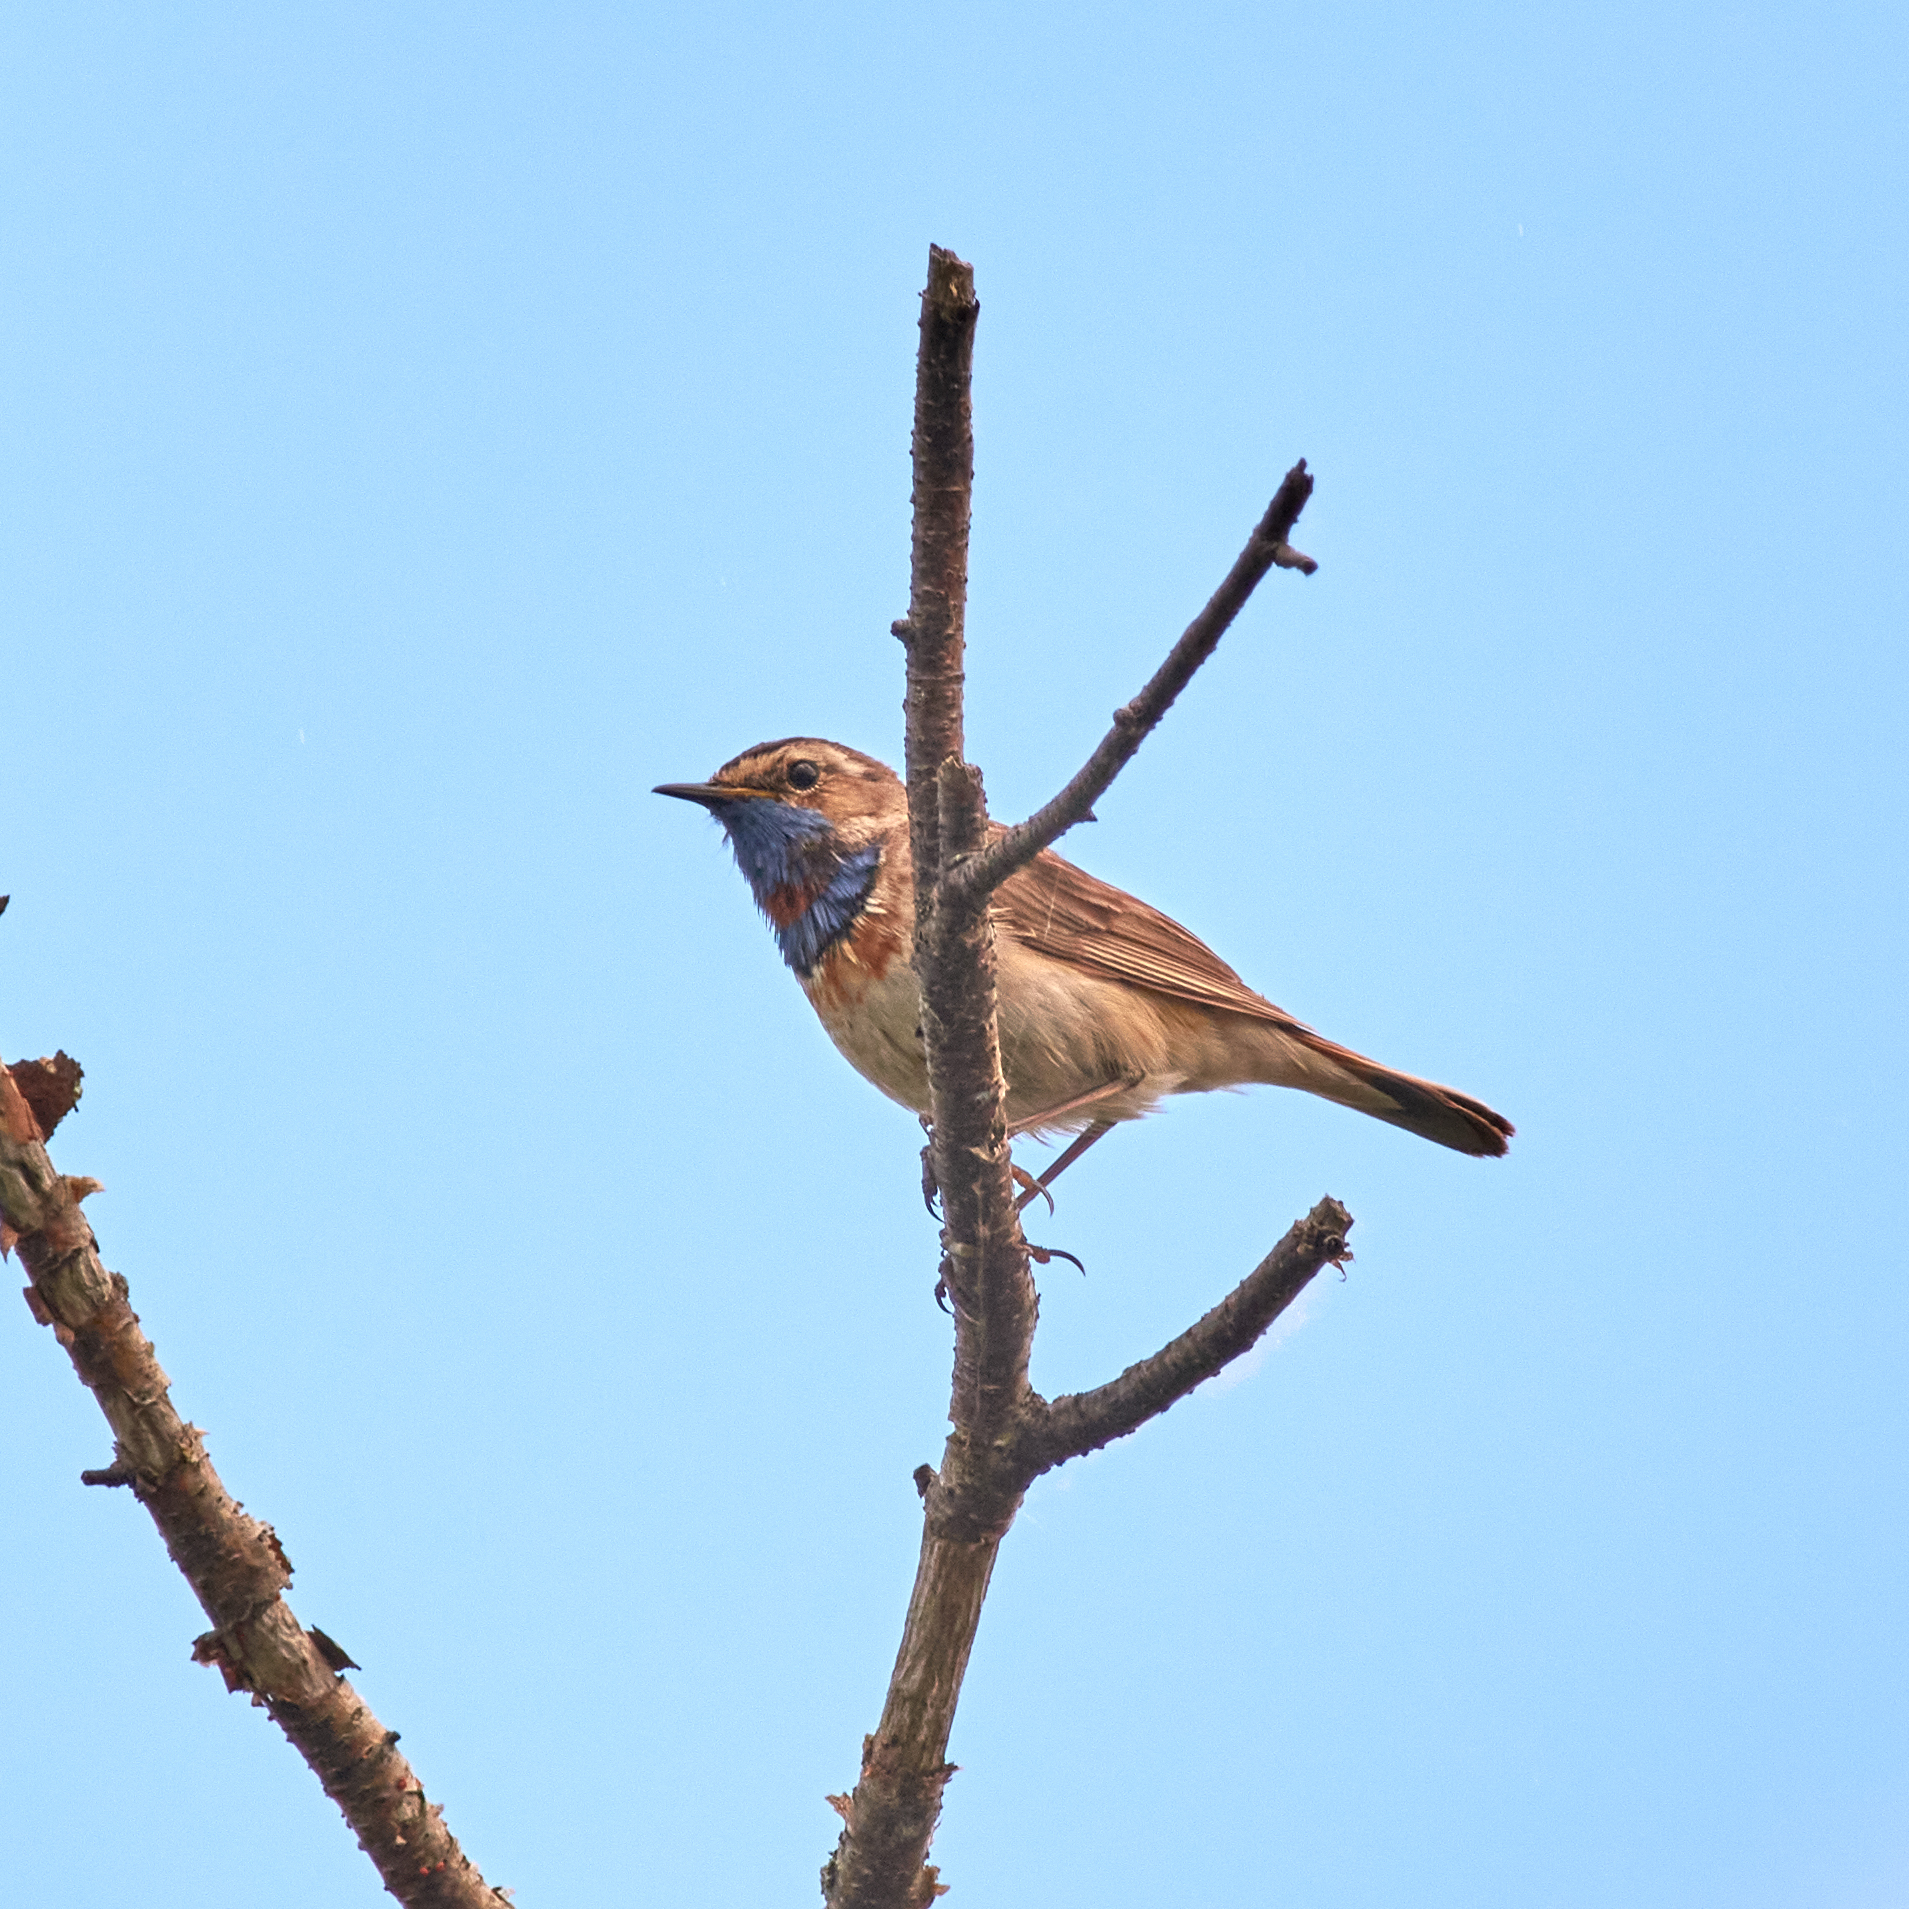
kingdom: Animalia
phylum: Chordata
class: Aves
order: Passeriformes
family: Muscicapidae
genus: Luscinia
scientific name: Luscinia svecica
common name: Bluethroat
